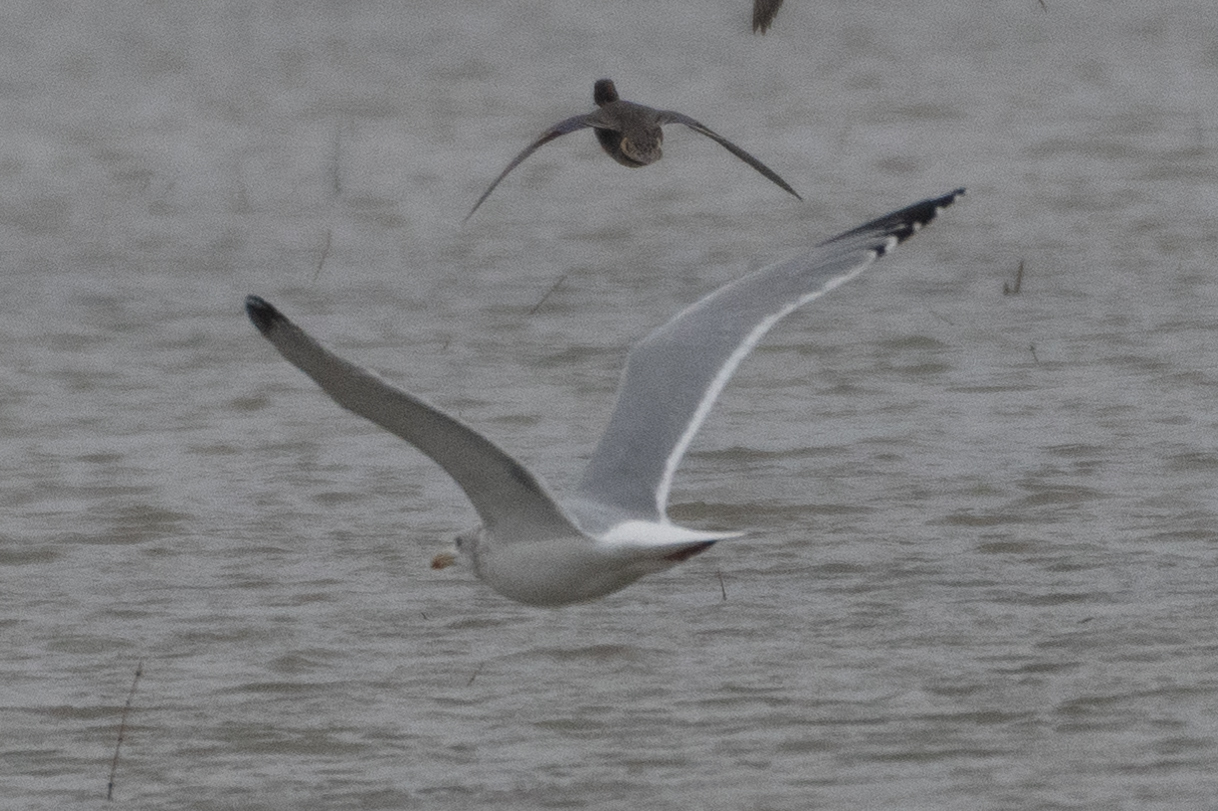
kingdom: Animalia
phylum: Chordata
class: Aves
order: Charadriiformes
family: Laridae
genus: Larus
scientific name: Larus argentatus
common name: Herring gull
